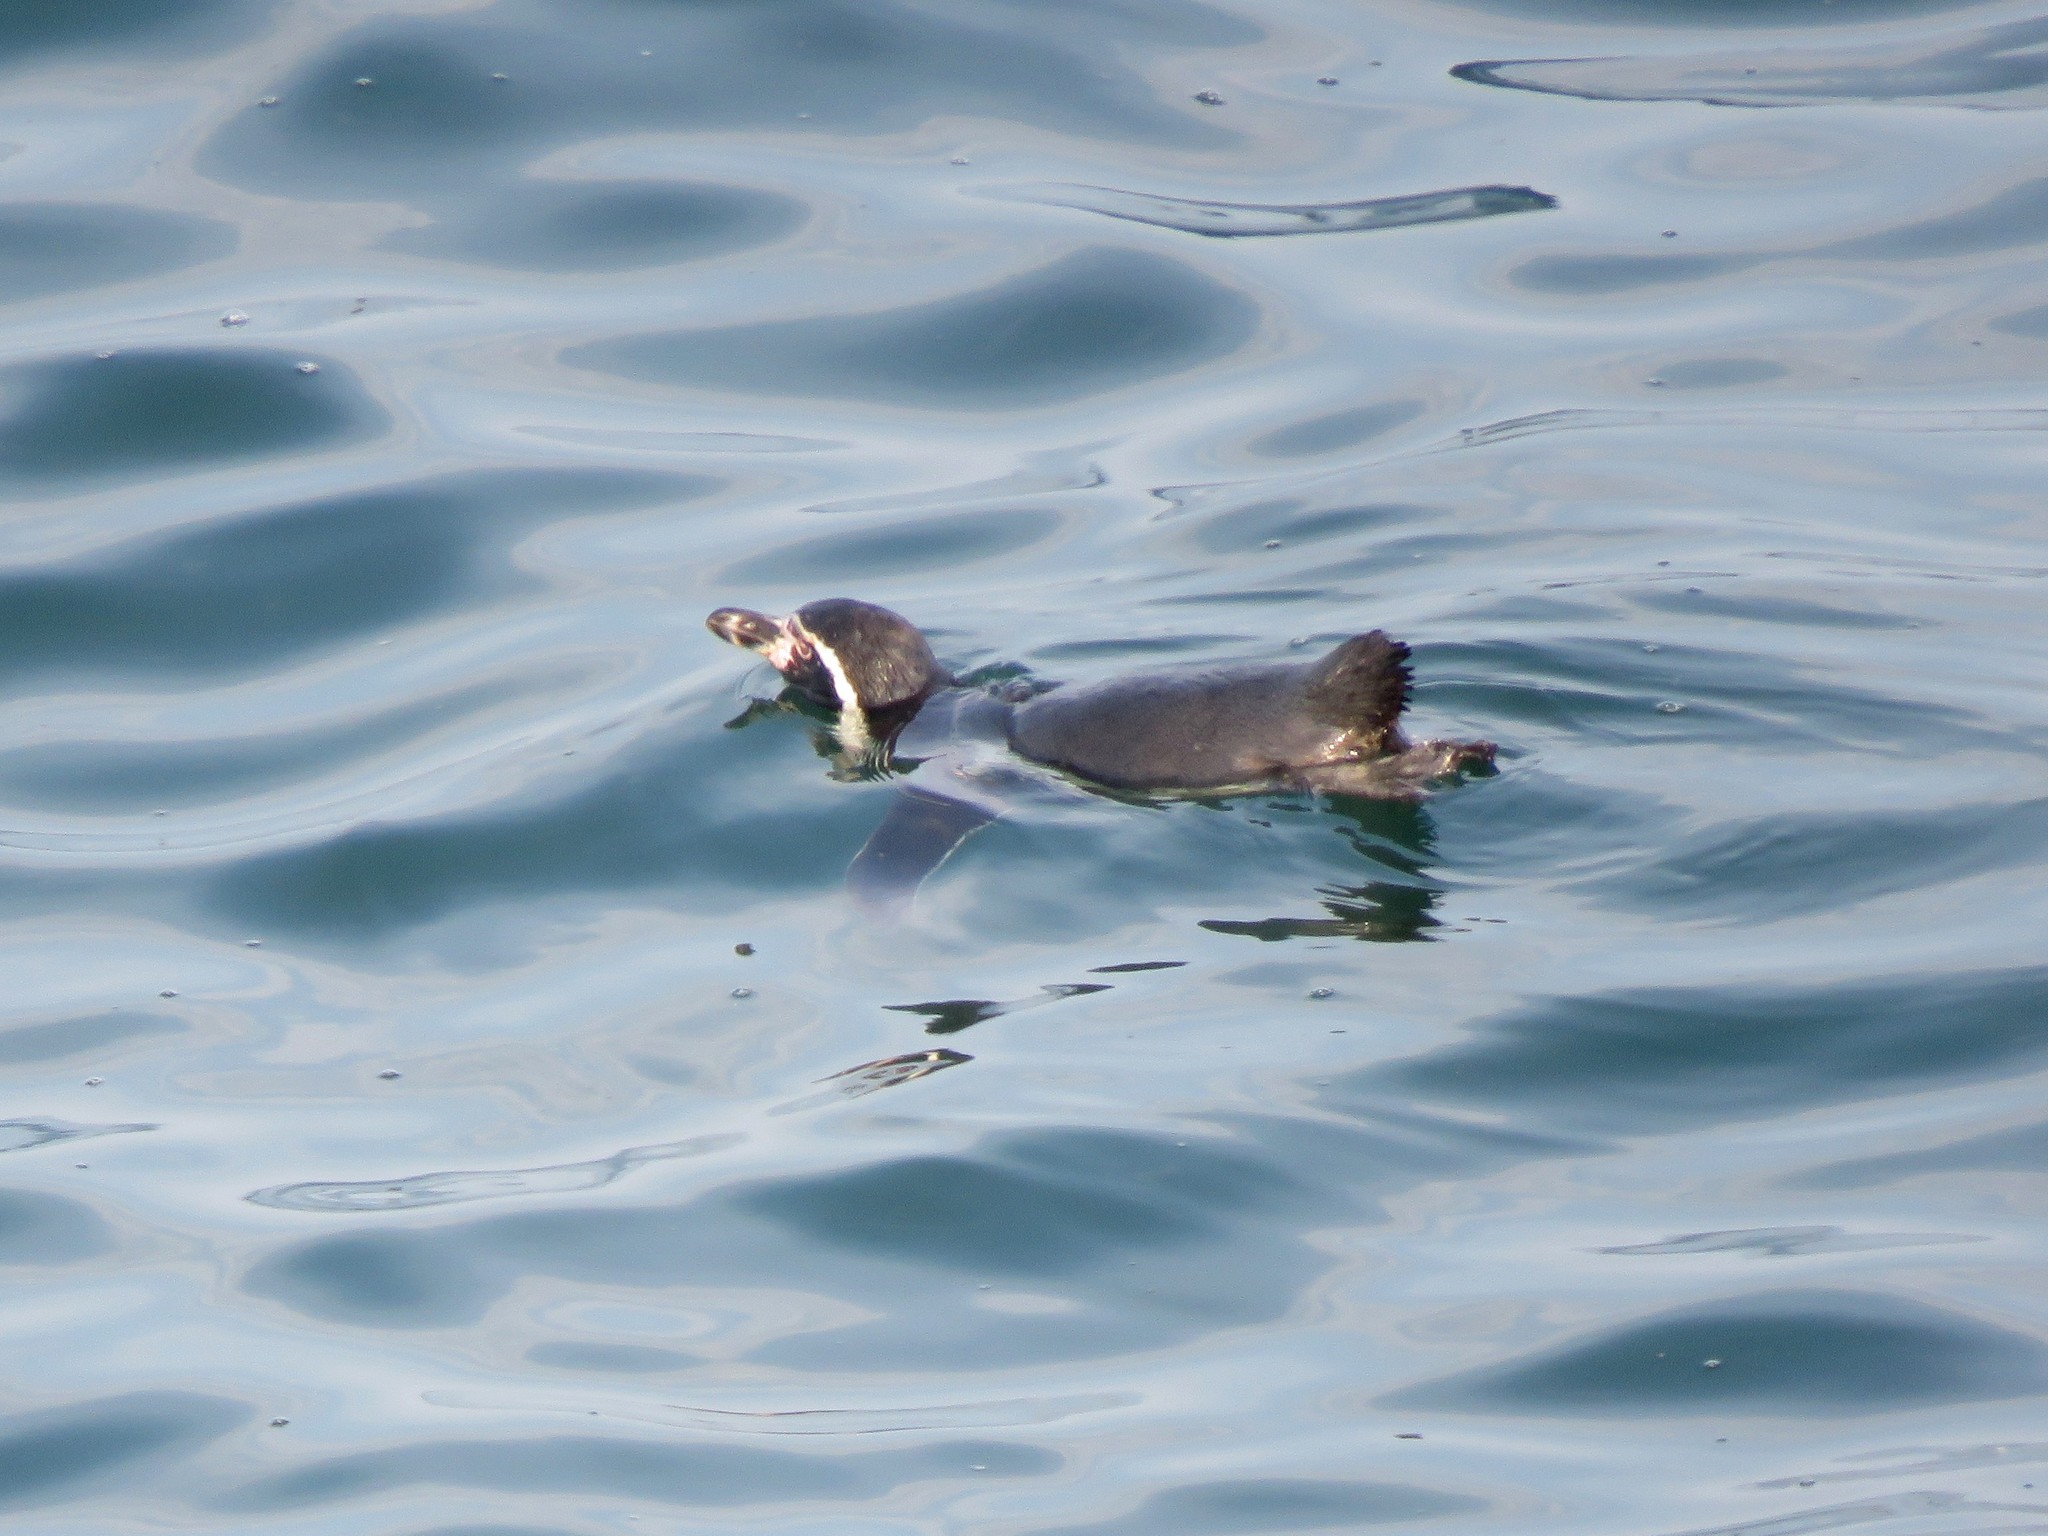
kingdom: Animalia
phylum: Chordata
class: Aves
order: Sphenisciformes
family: Spheniscidae
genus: Spheniscus
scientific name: Spheniscus humboldti
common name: Humboldt penguin
